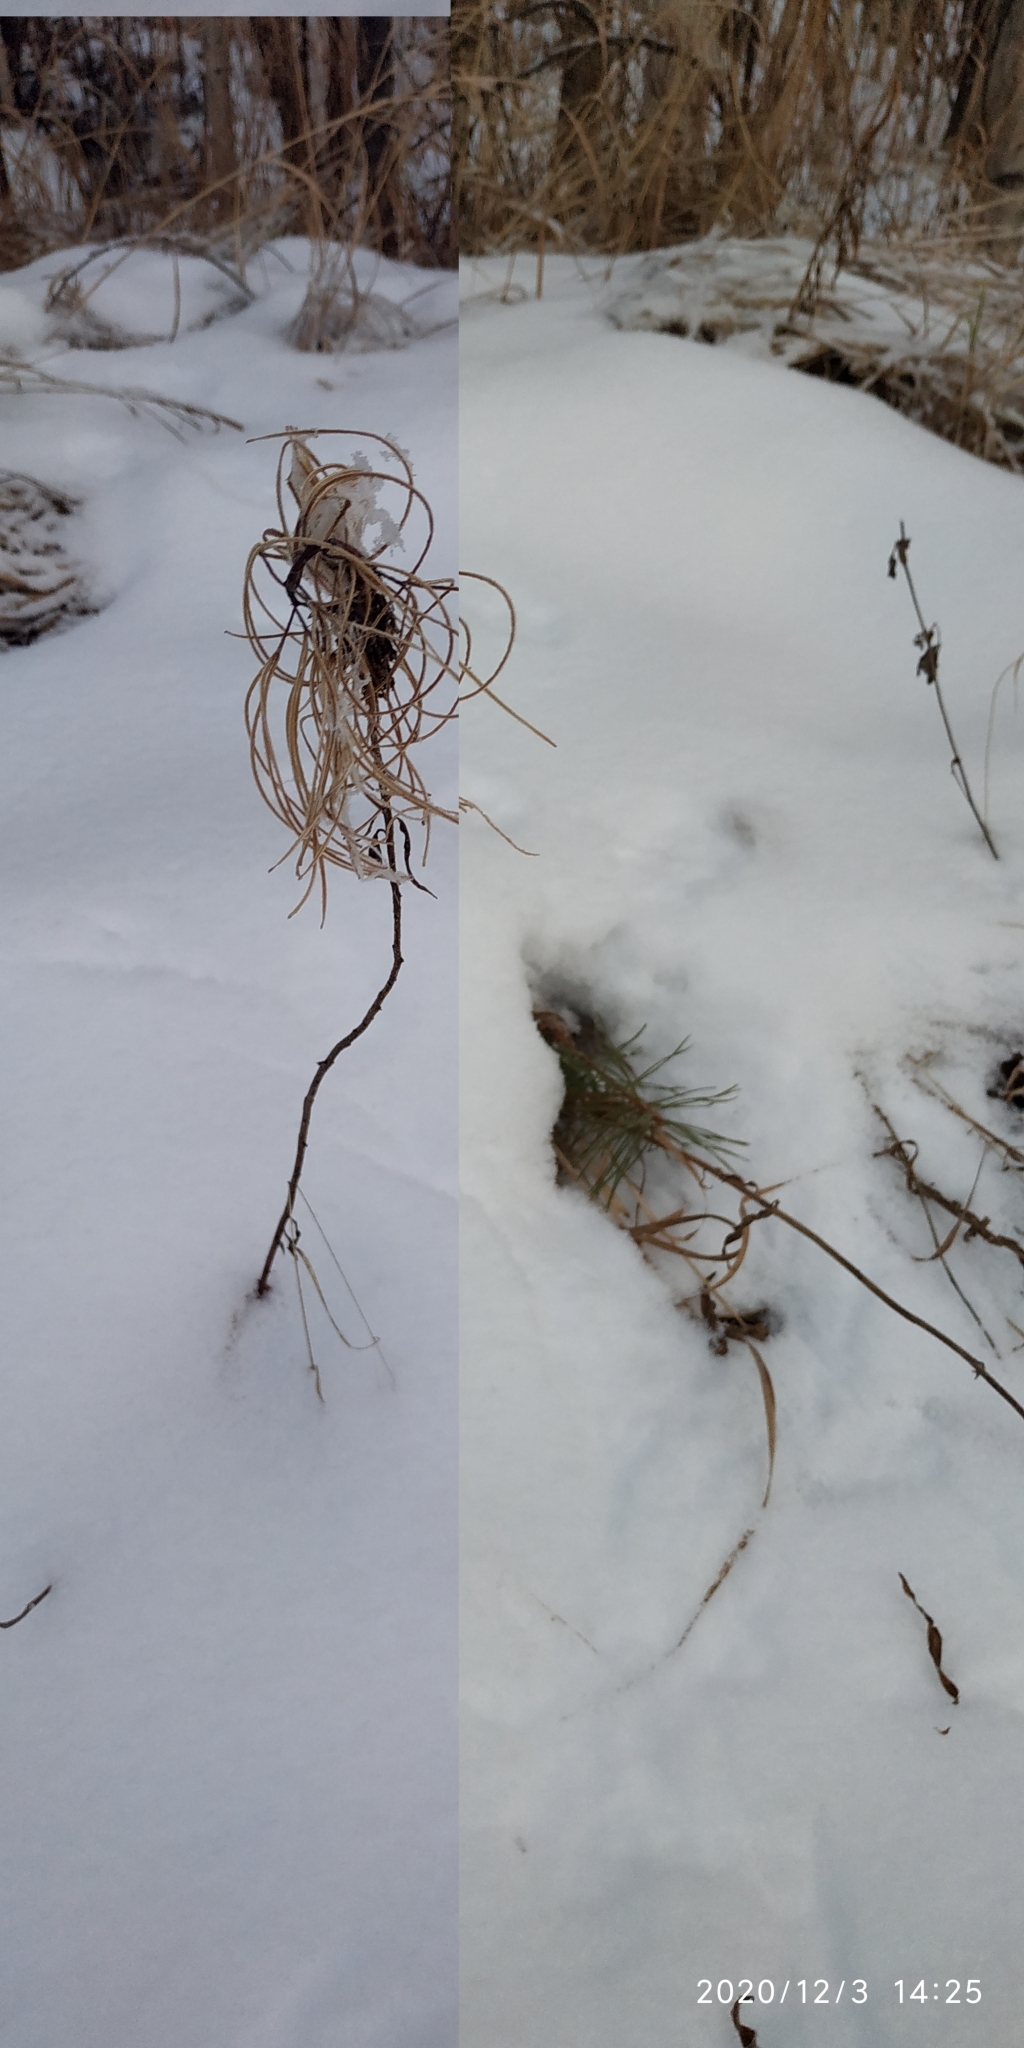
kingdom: Plantae
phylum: Tracheophyta
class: Magnoliopsida
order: Myrtales
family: Onagraceae
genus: Chamaenerion
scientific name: Chamaenerion angustifolium
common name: Fireweed
